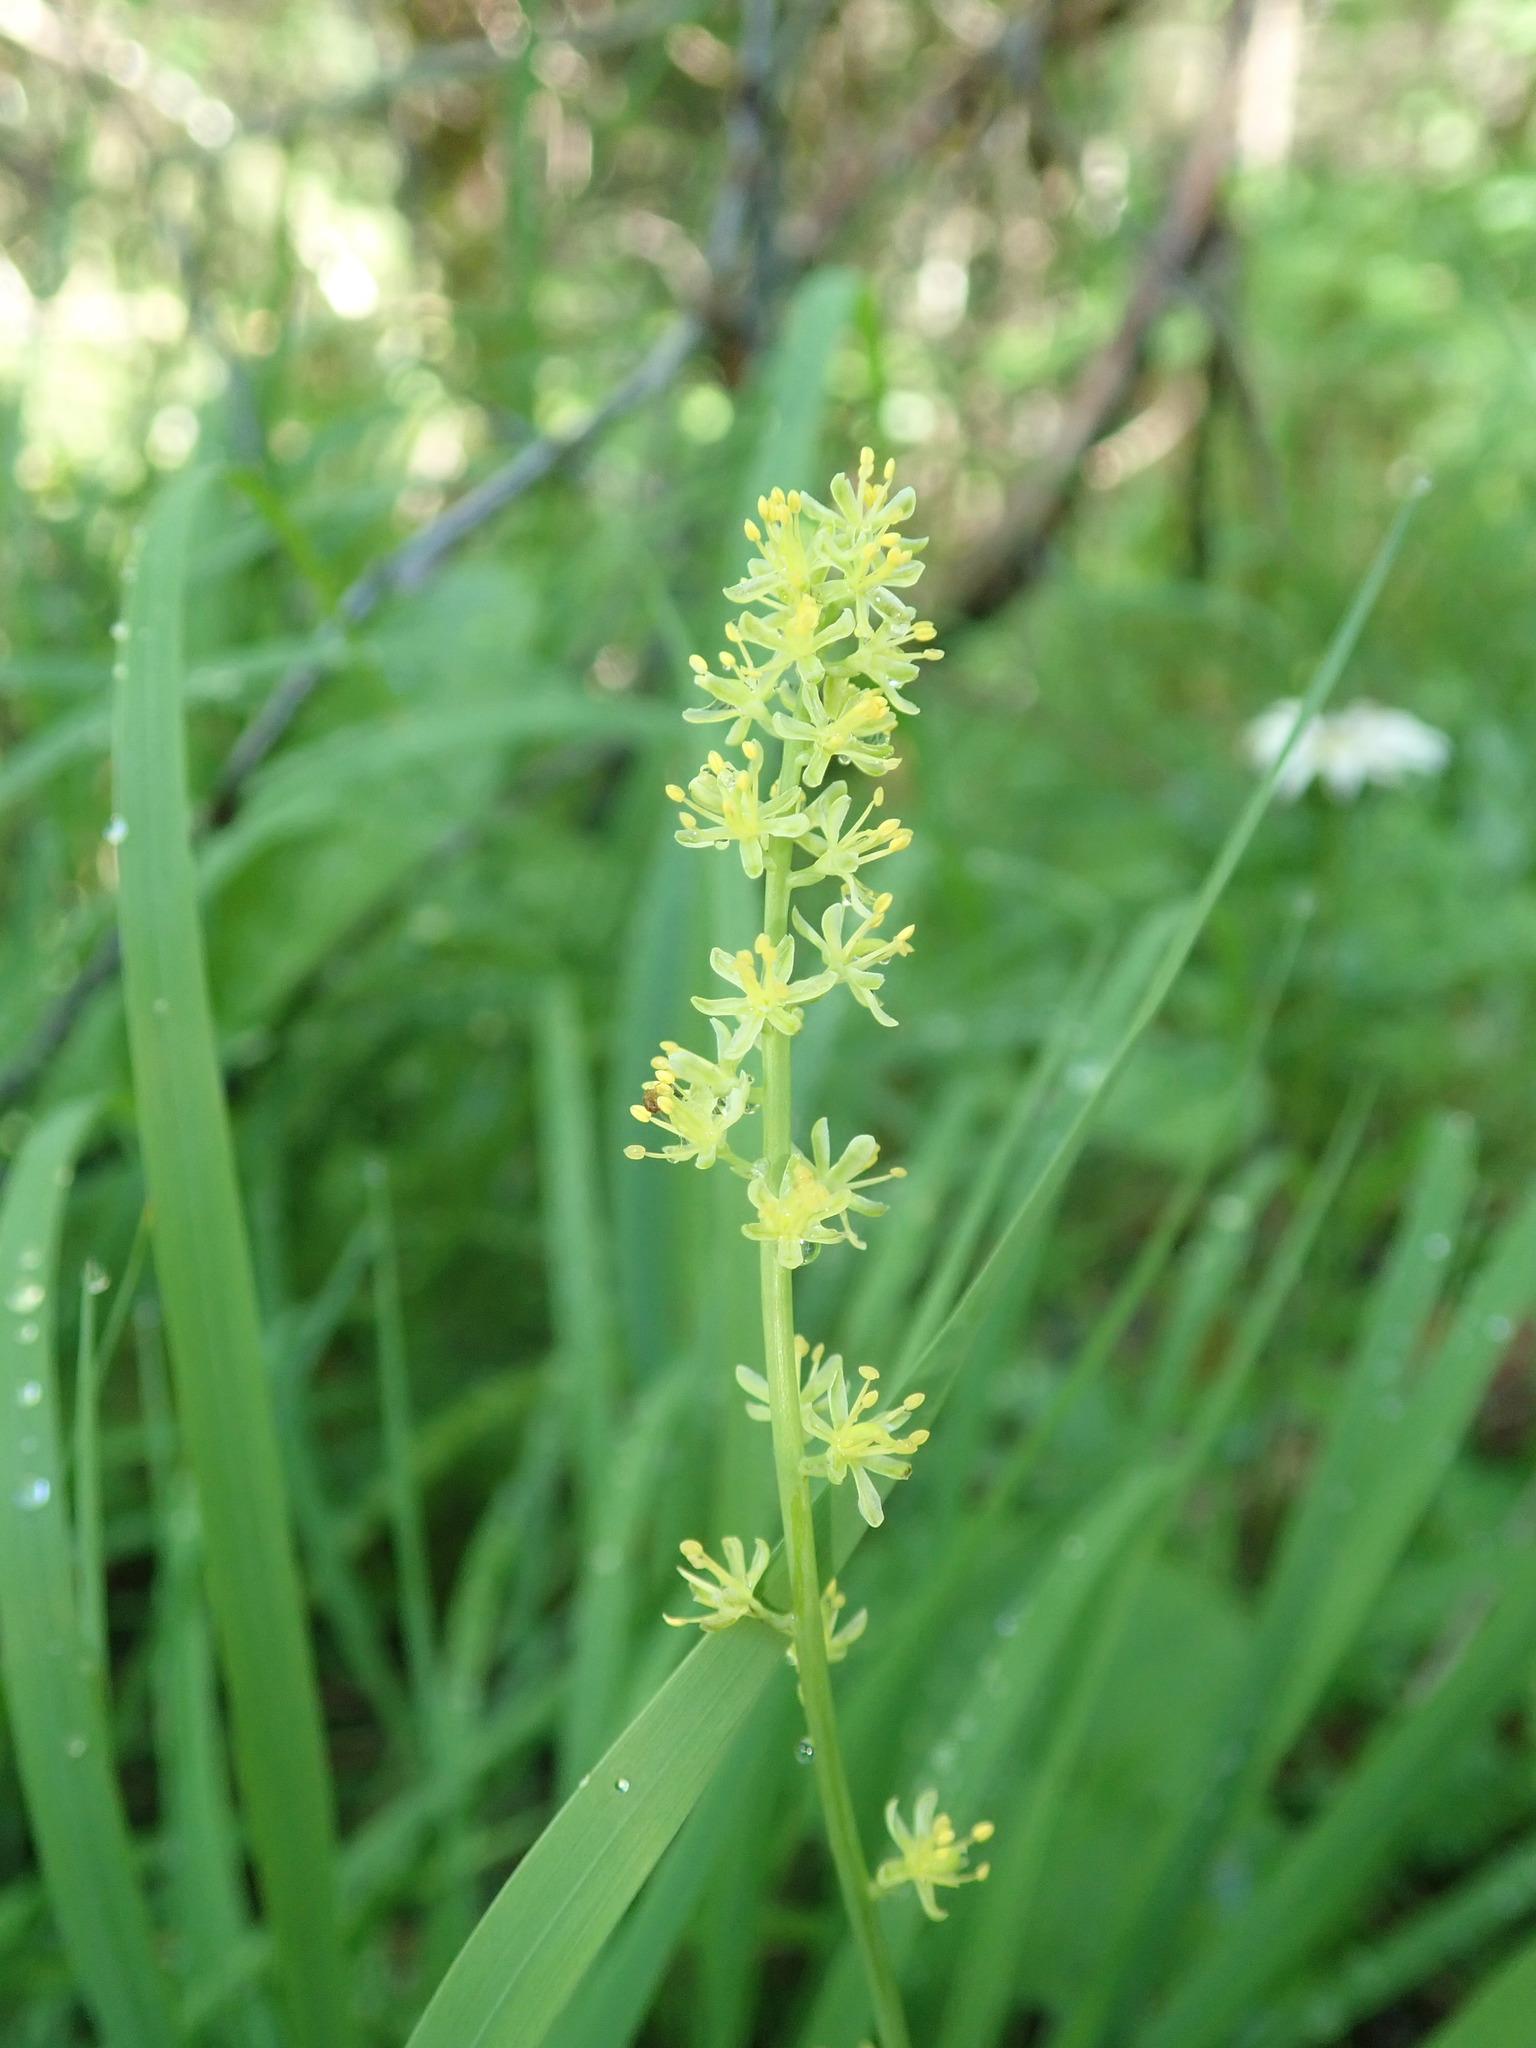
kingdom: Plantae
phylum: Tracheophyta
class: Liliopsida
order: Alismatales
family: Tofieldiaceae
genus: Tofieldia
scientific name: Tofieldia calyculata
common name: German-asphodel
